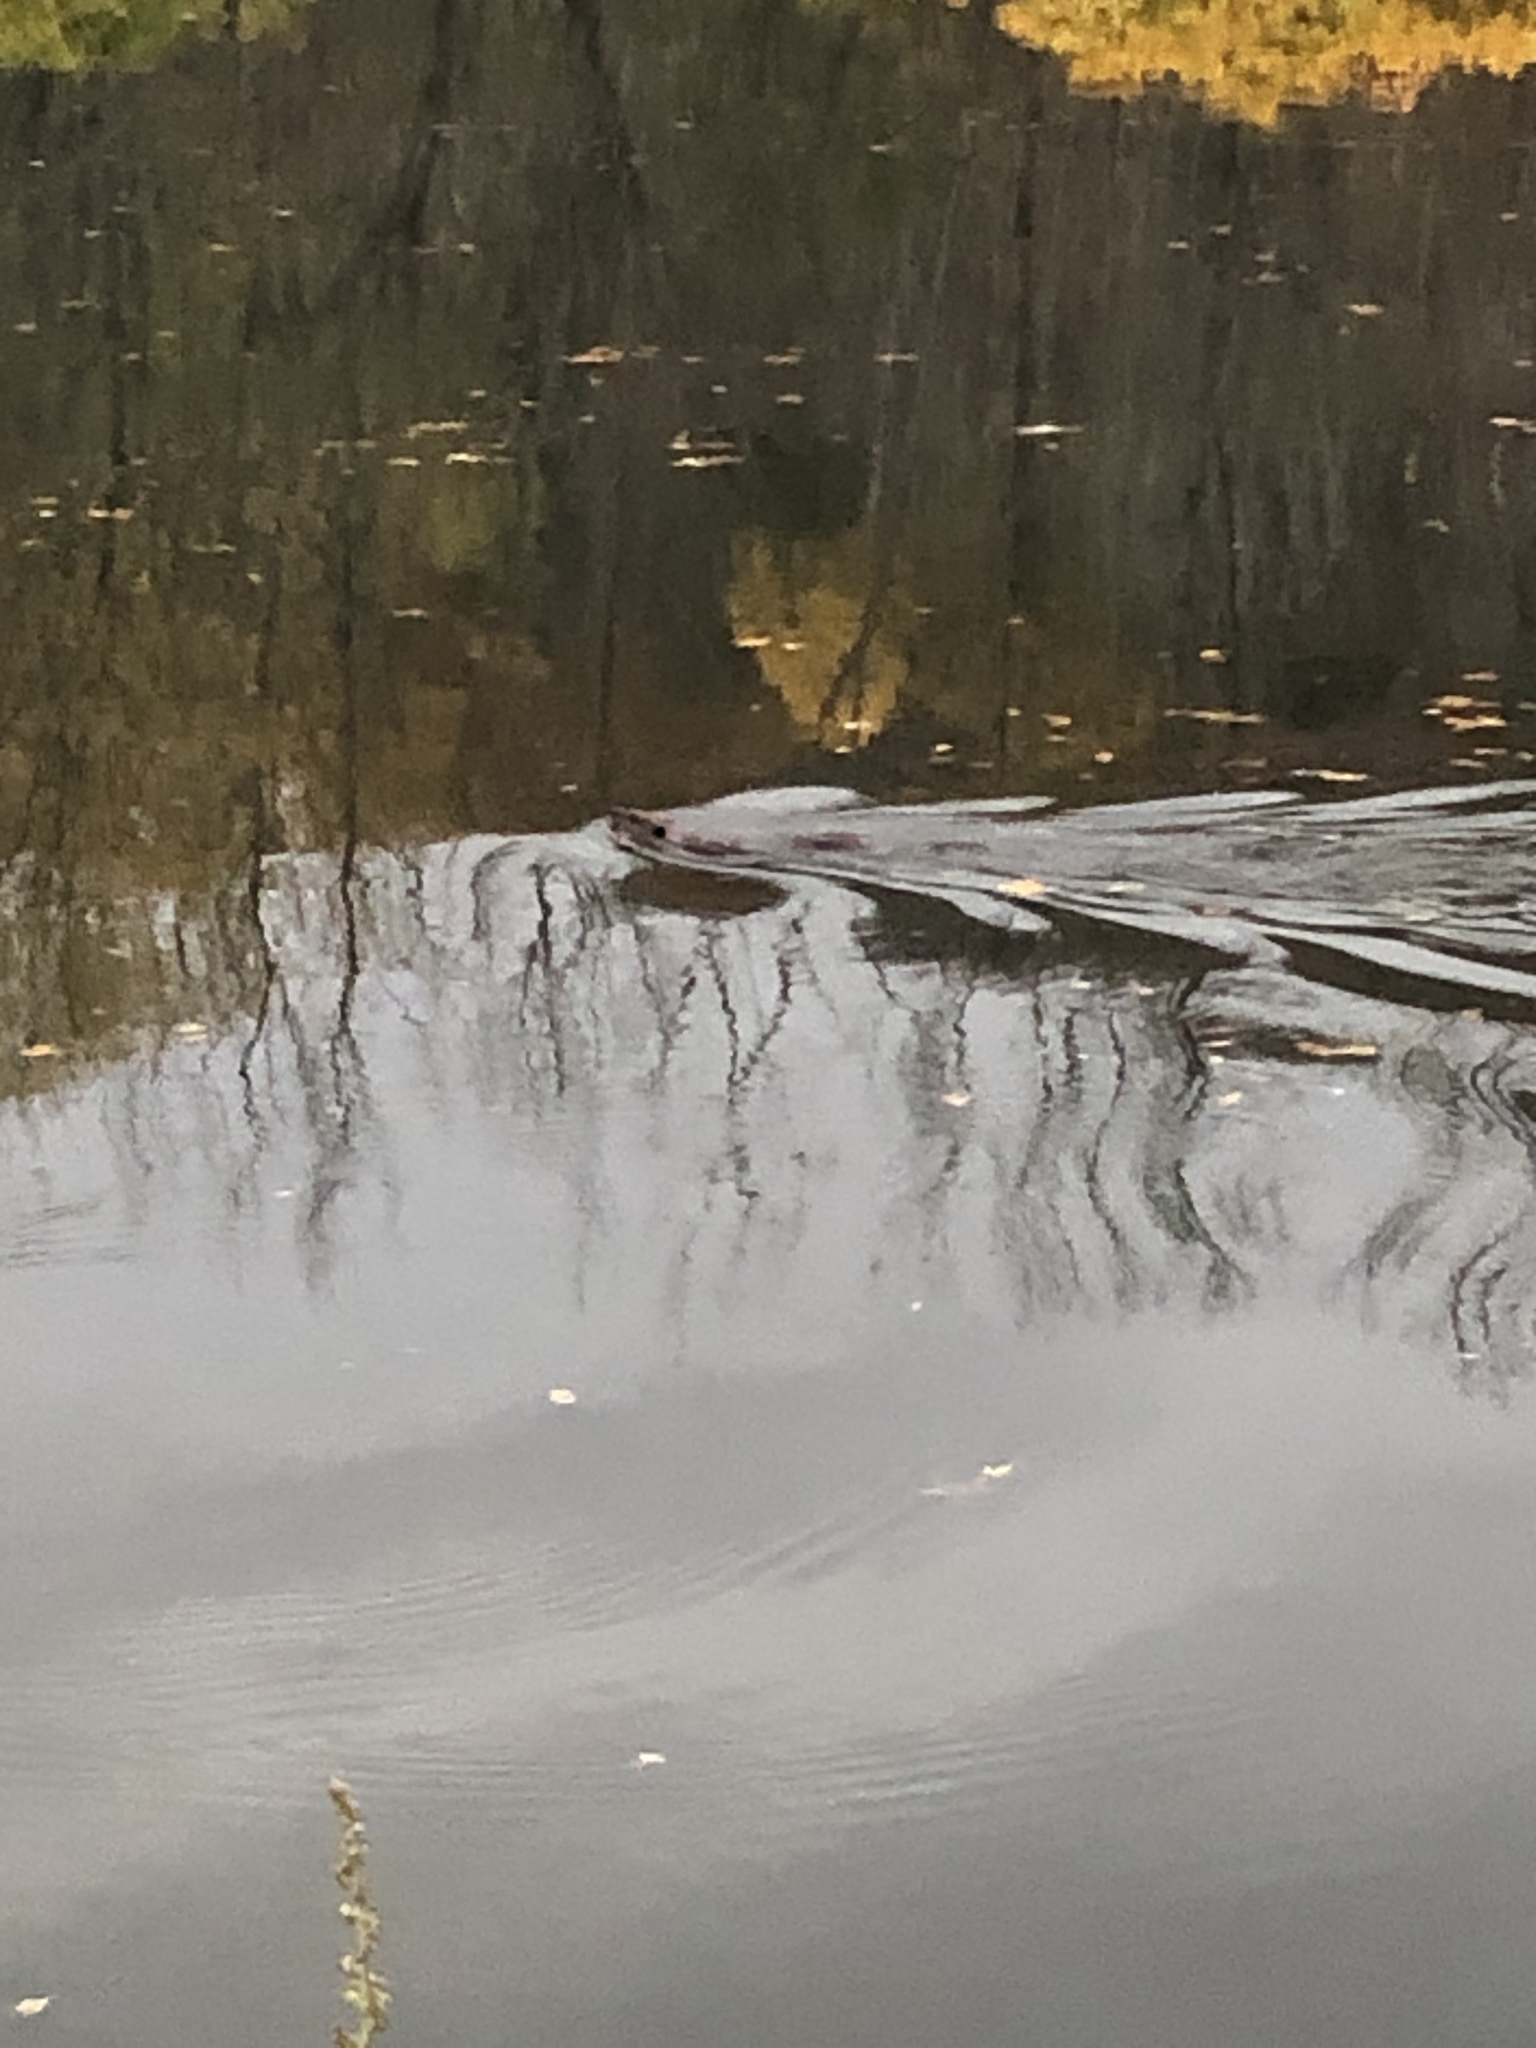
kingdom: Animalia
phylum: Chordata
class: Mammalia
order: Rodentia
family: Castoridae
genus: Castor
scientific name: Castor canadensis
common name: American beaver
